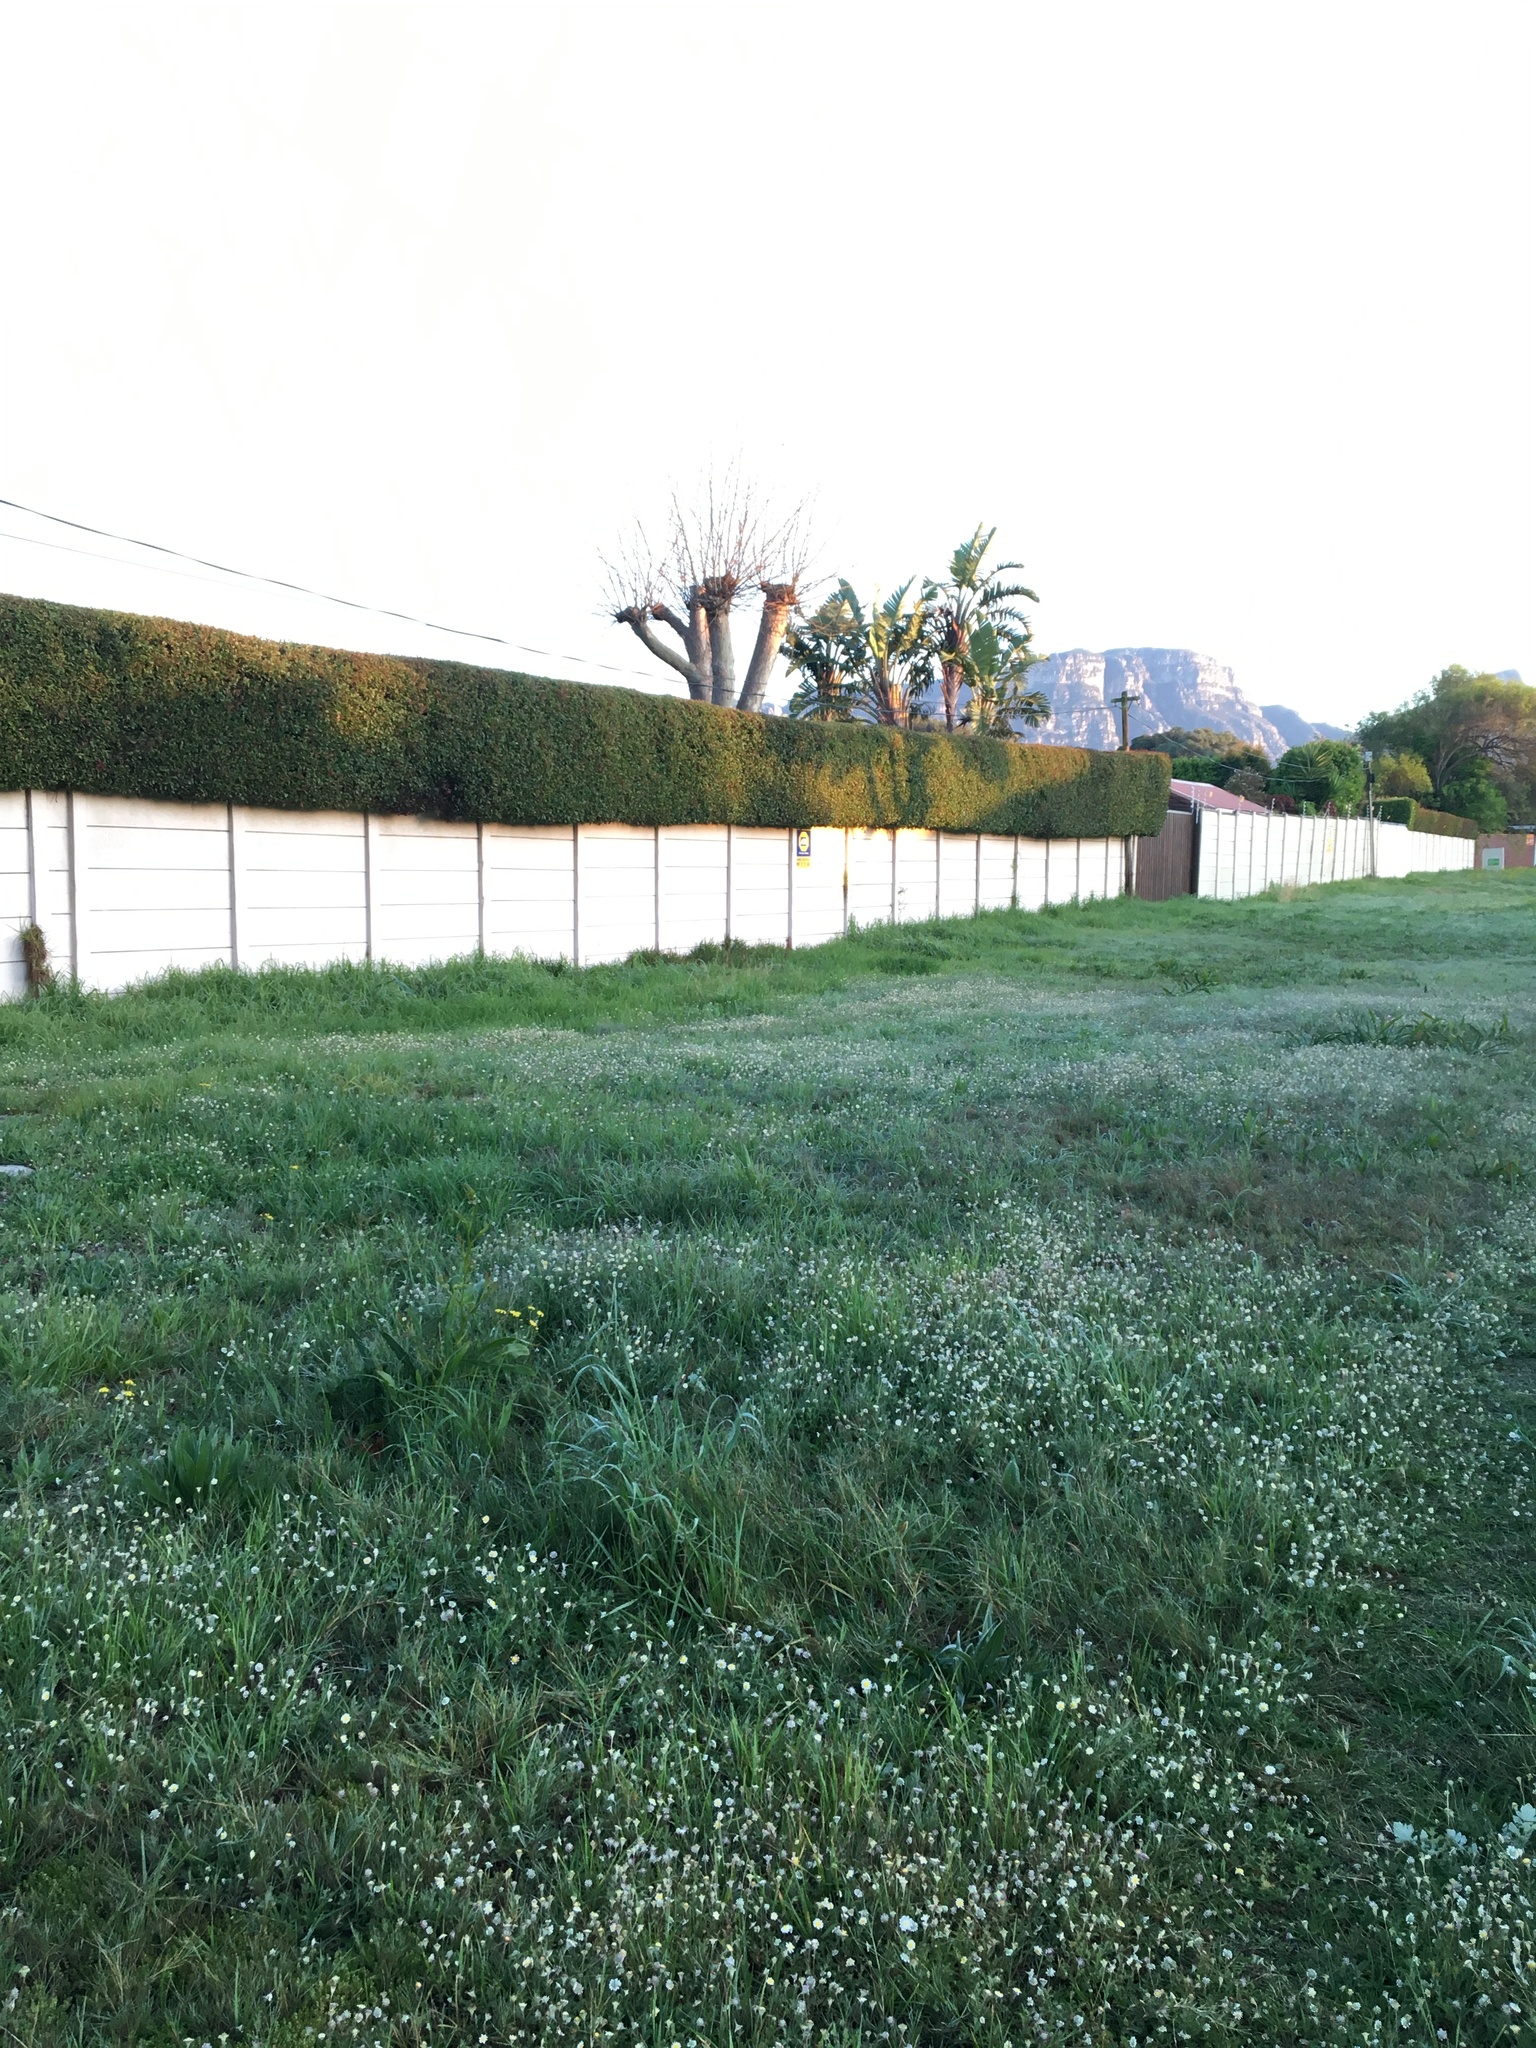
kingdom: Plantae
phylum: Tracheophyta
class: Magnoliopsida
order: Fabales
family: Fabaceae
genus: Acacia
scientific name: Acacia saligna
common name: Orange wattle
